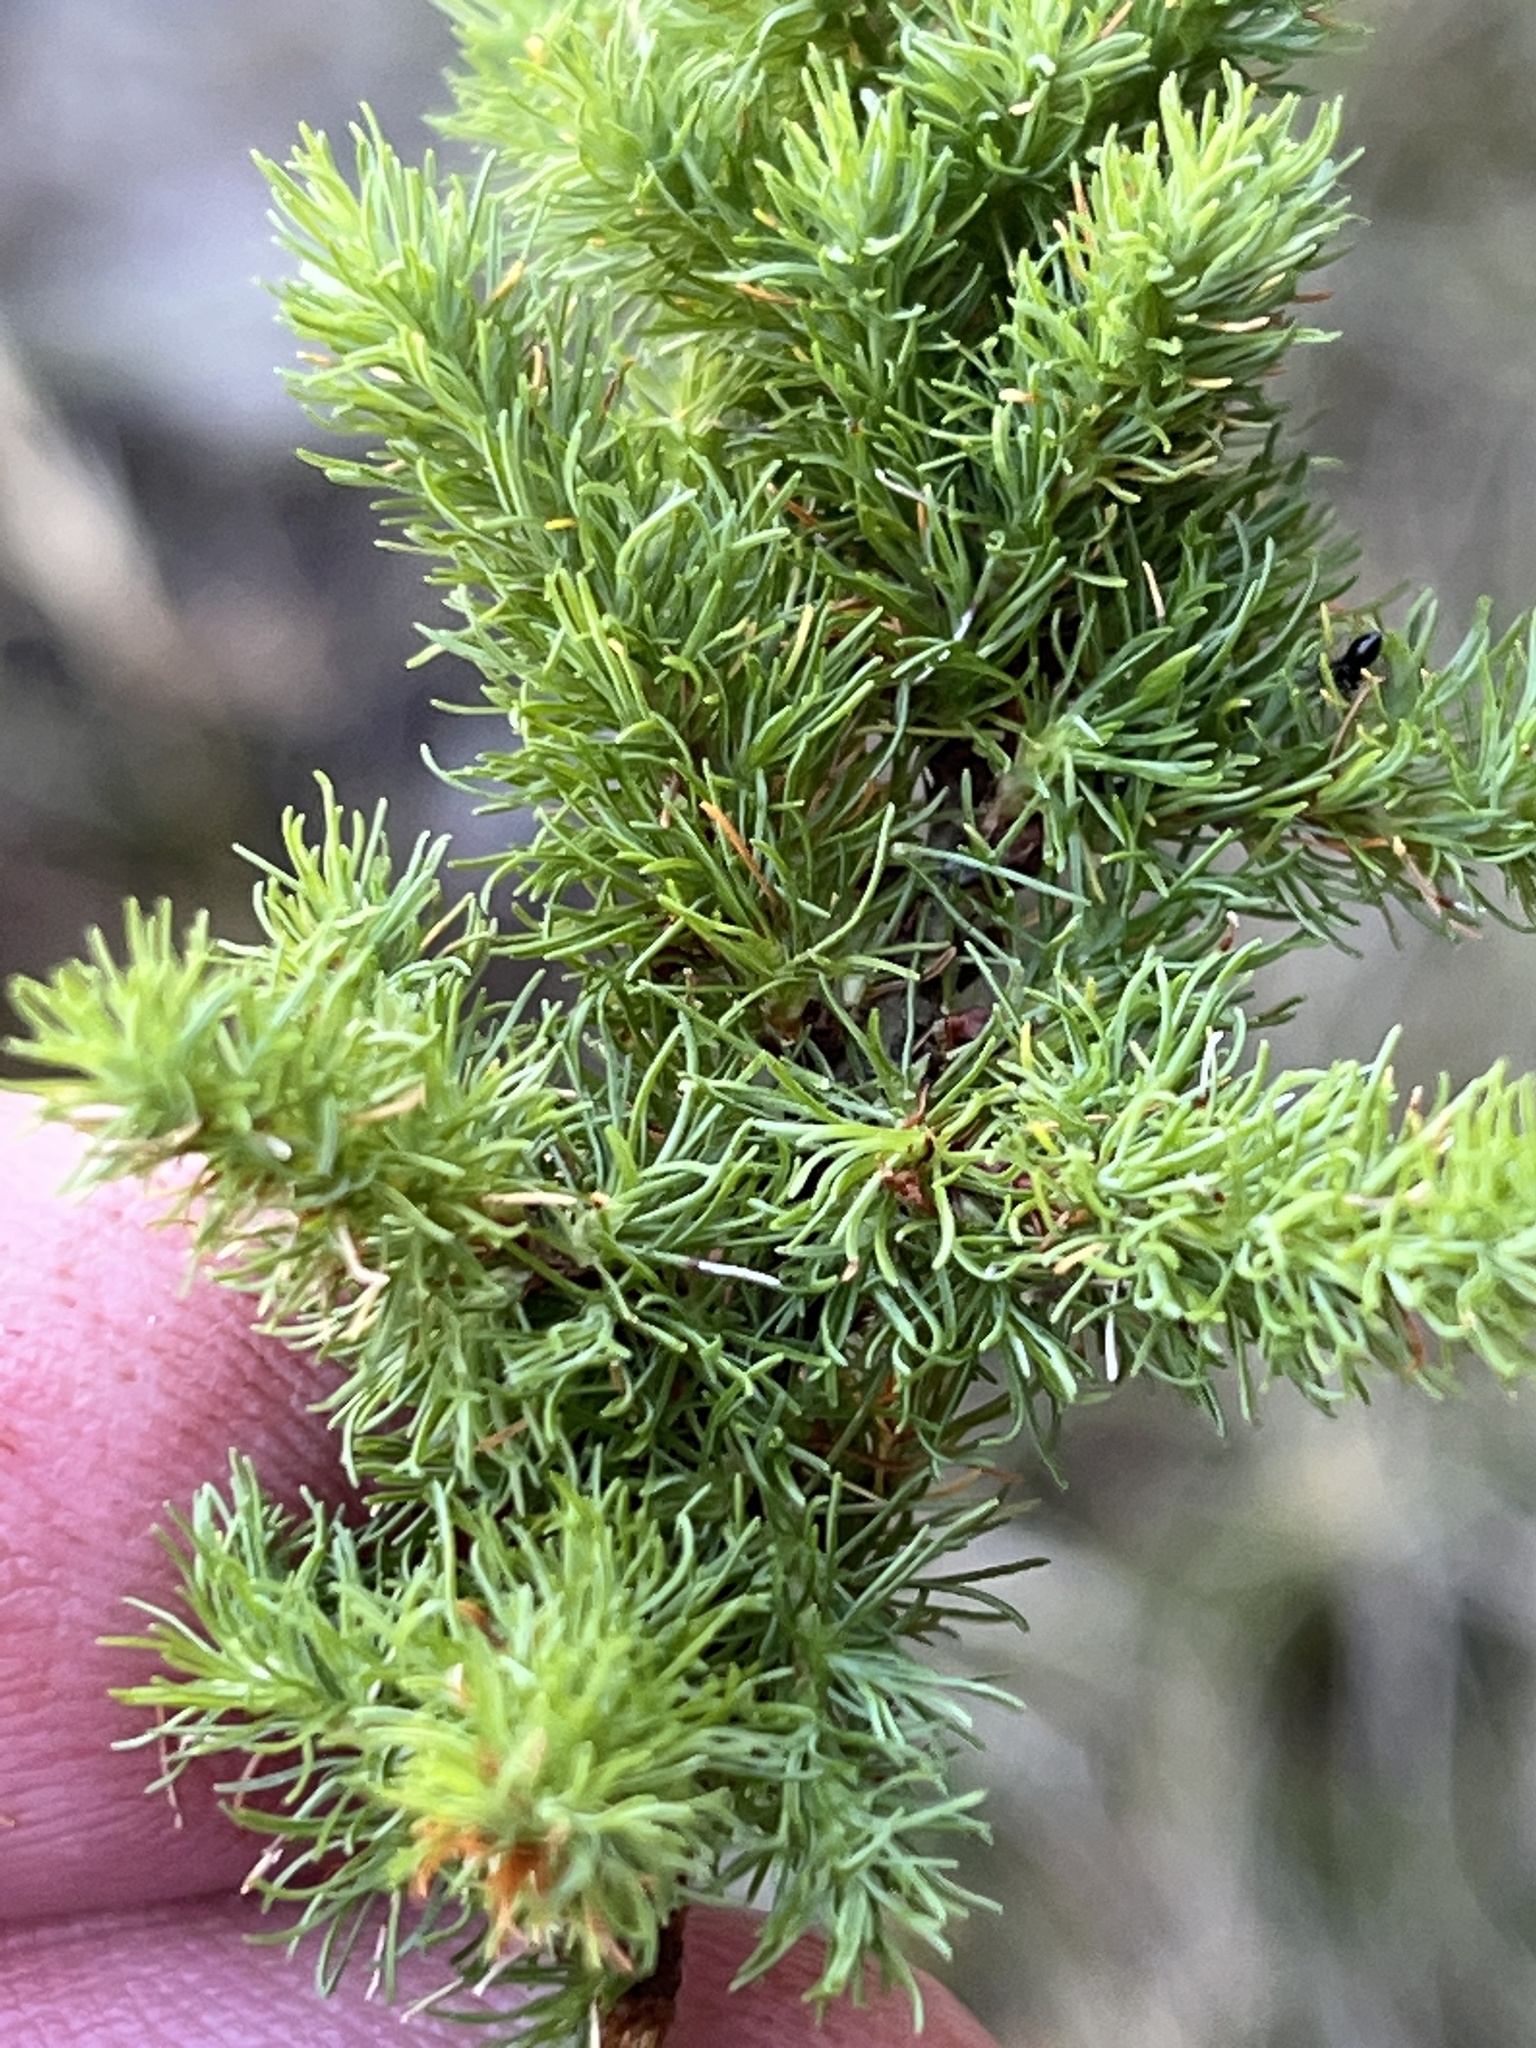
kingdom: Plantae
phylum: Tracheophyta
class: Magnoliopsida
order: Rosales
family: Rosaceae
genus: Cliffortia
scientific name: Cliffortia setifolia
